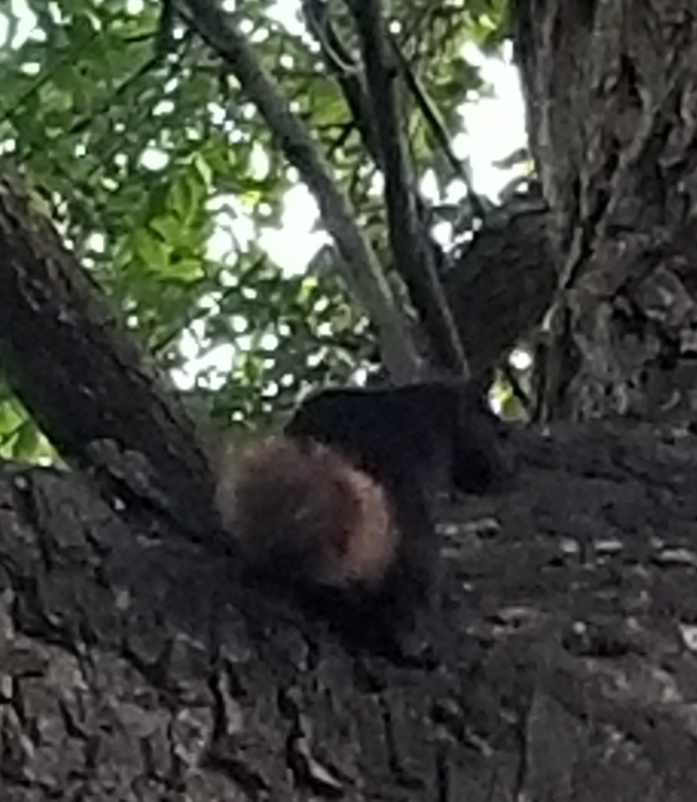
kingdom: Animalia
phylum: Chordata
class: Mammalia
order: Rodentia
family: Sciuridae
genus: Sciurus
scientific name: Sciurus carolinensis
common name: Eastern gray squirrel
